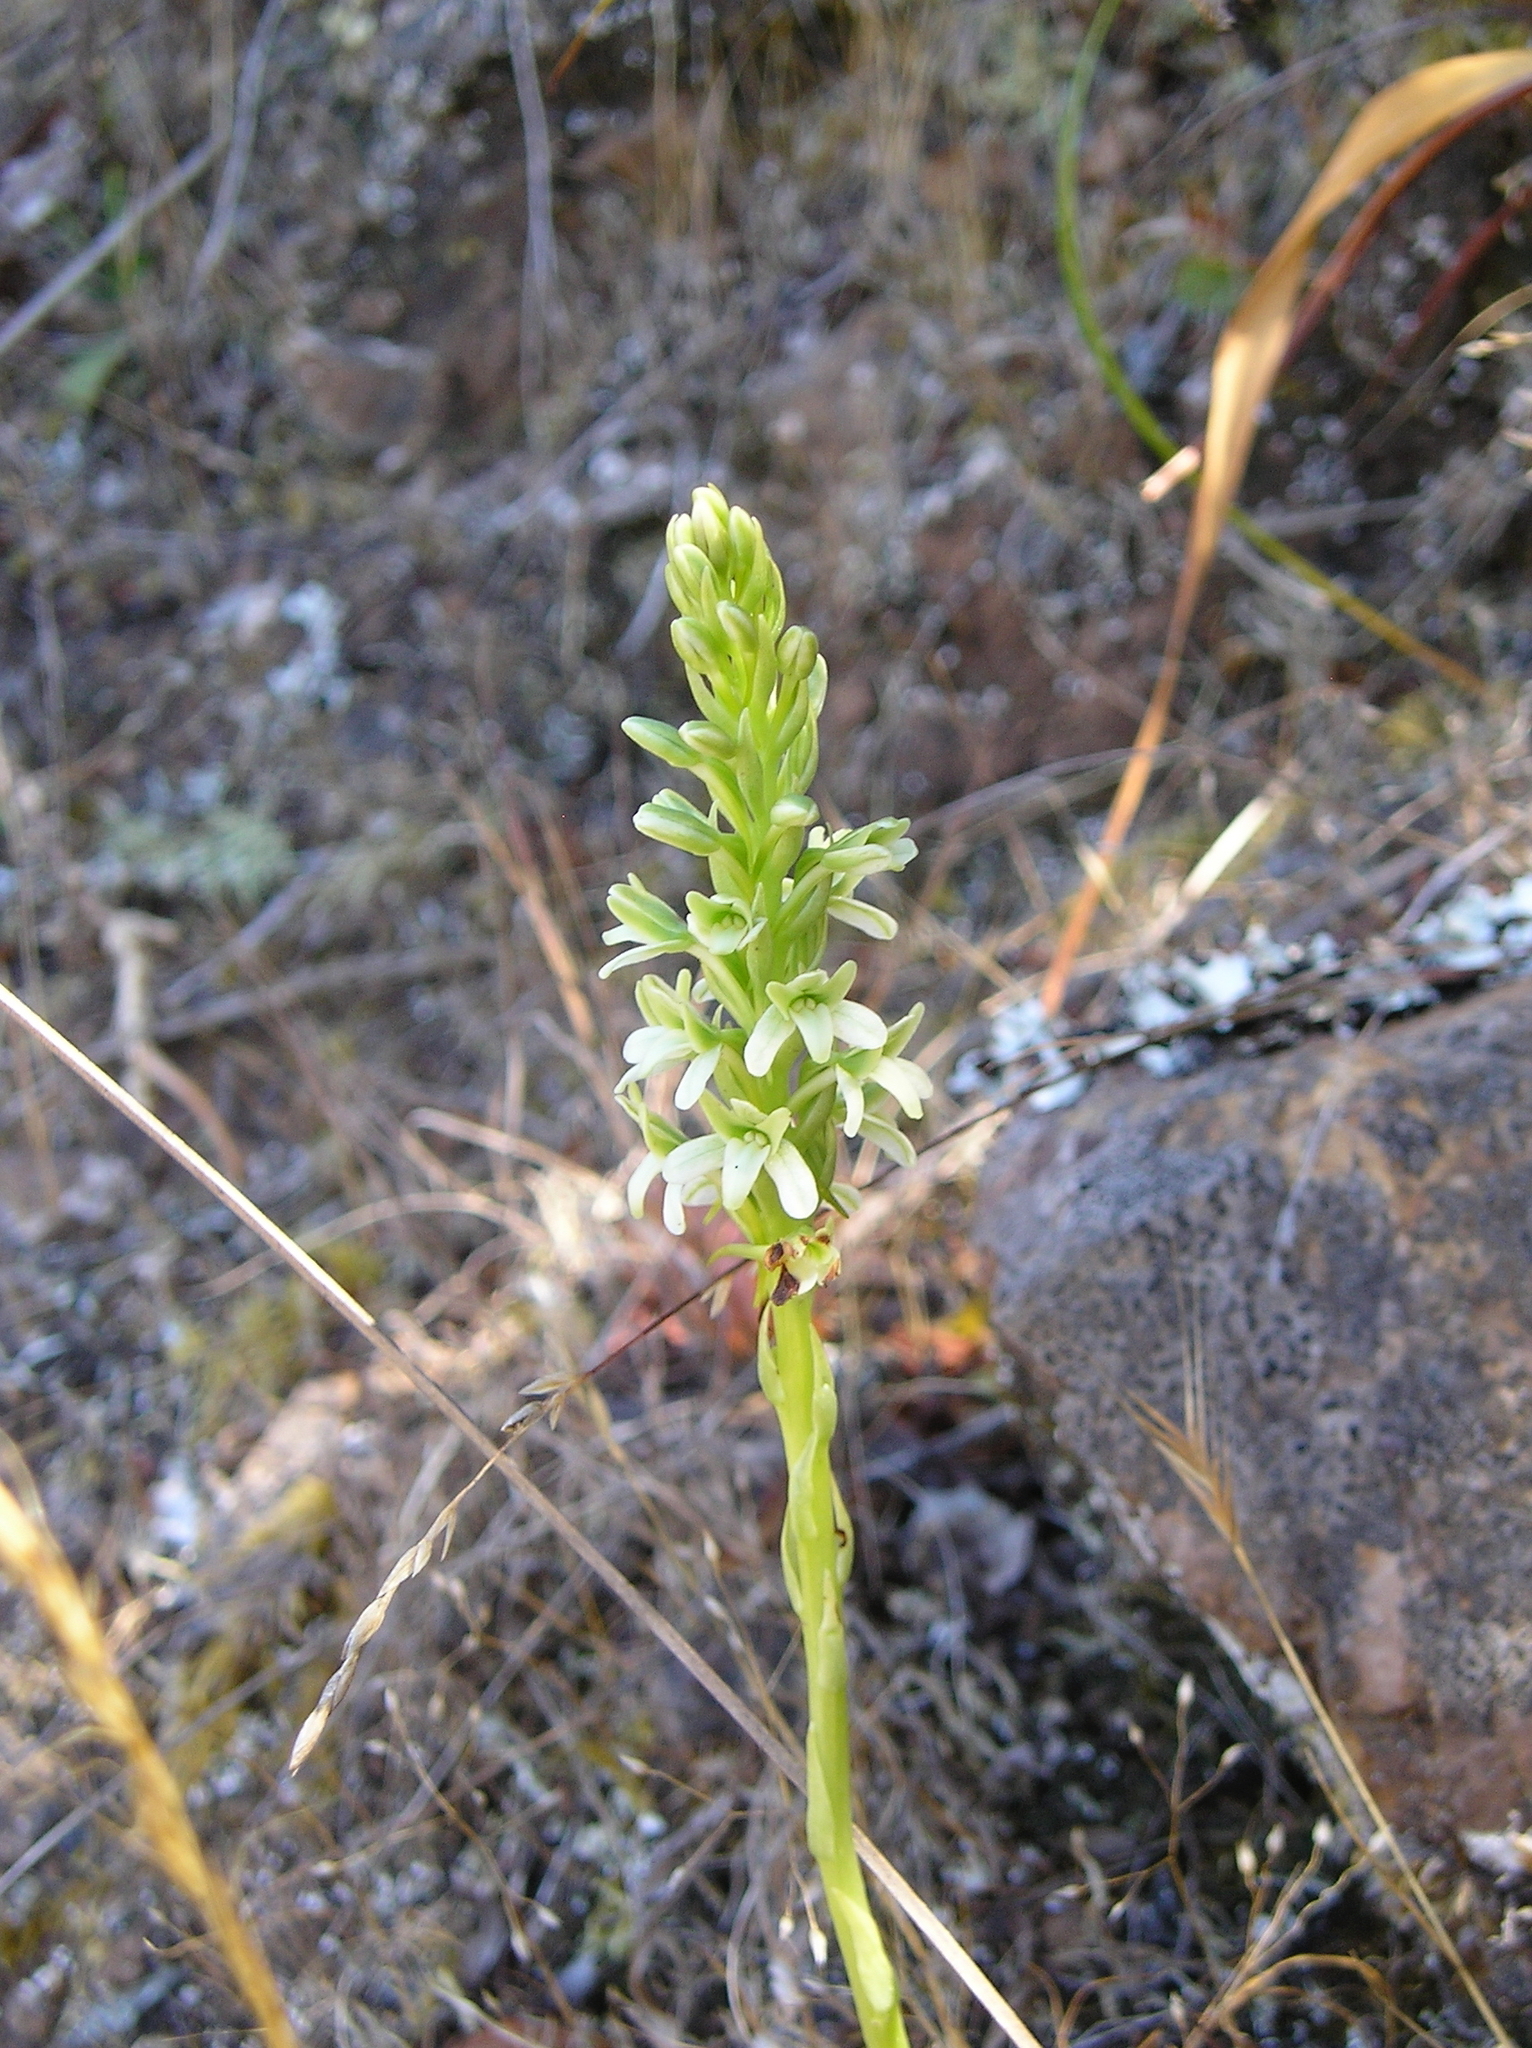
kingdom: Plantae
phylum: Tracheophyta
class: Liliopsida
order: Asparagales
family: Orchidaceae
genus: Platanthera
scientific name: Platanthera elegans
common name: Coast piperia
